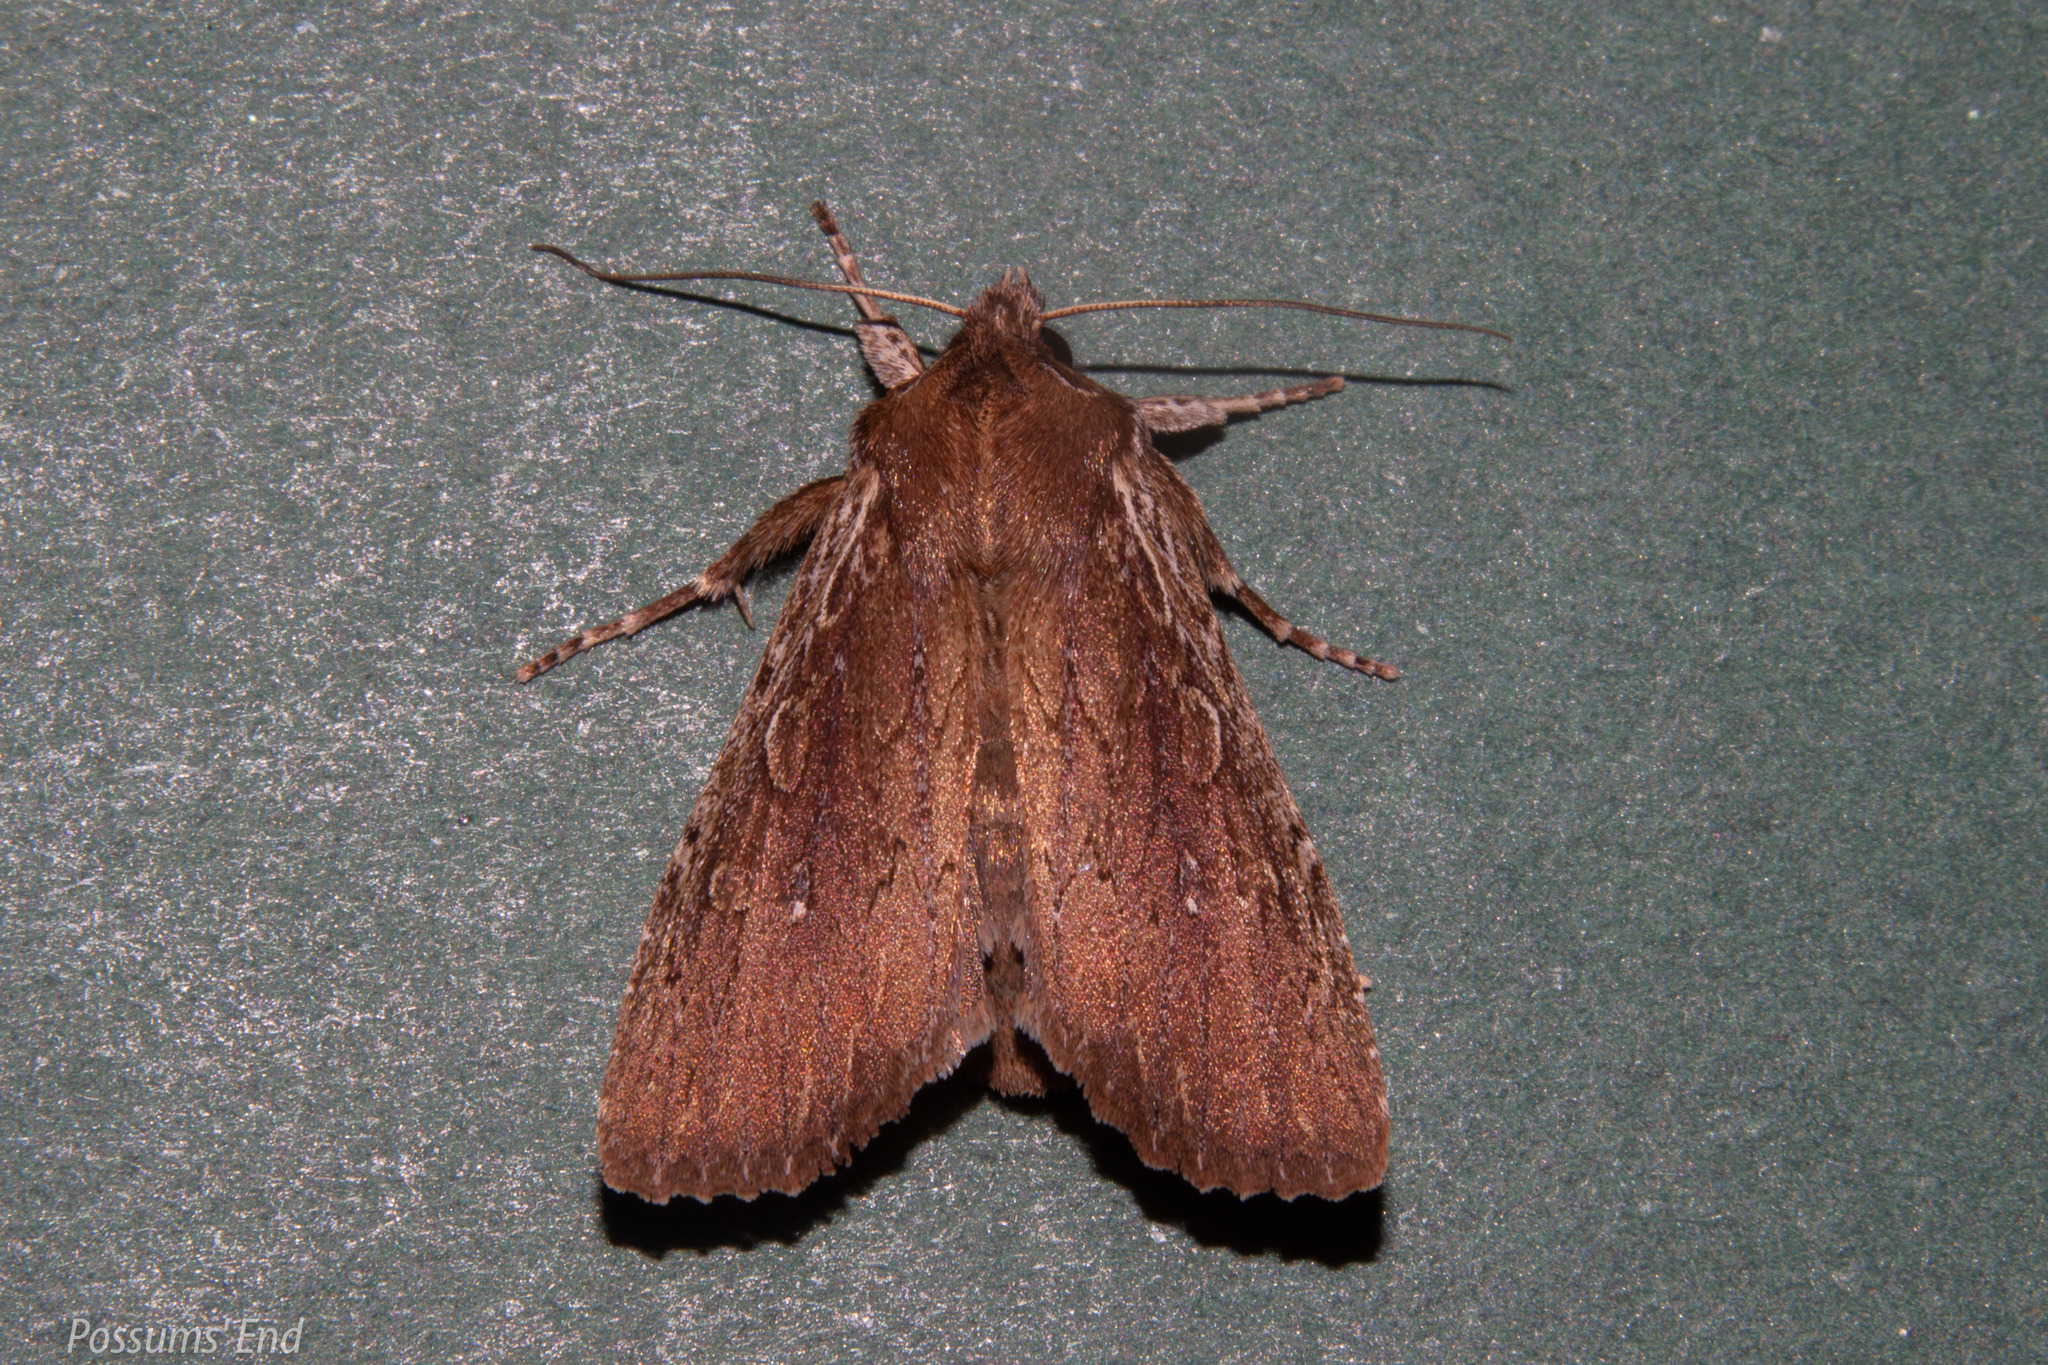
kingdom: Animalia
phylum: Arthropoda
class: Insecta
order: Lepidoptera
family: Noctuidae
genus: Ichneutica
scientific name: Ichneutica
